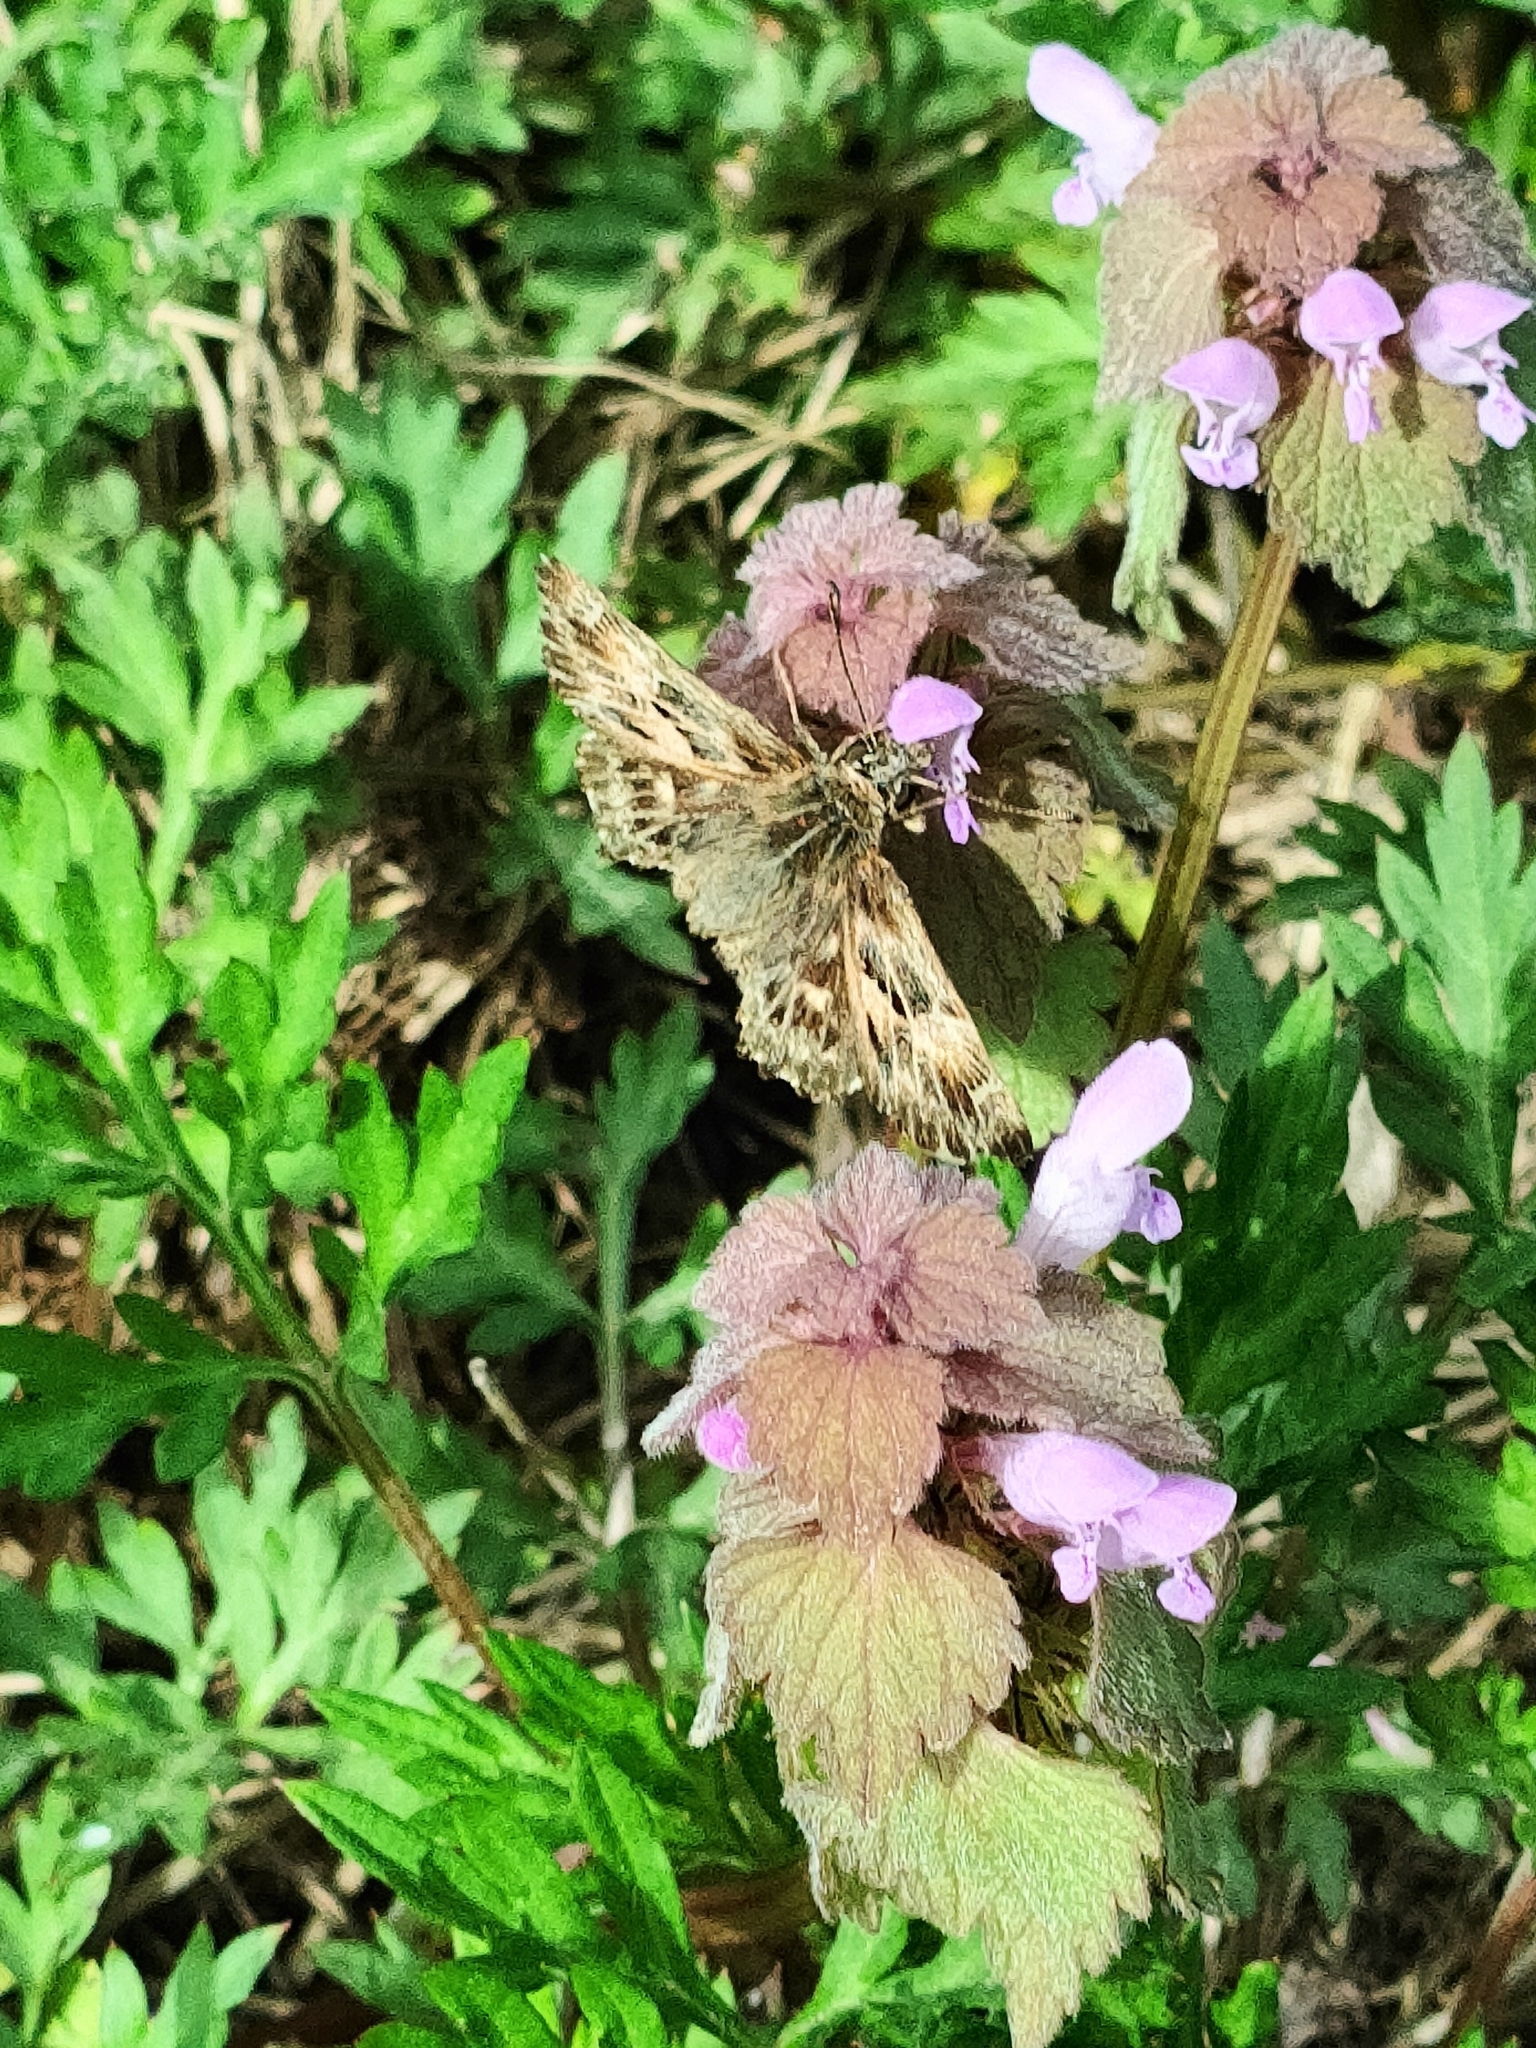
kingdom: Animalia
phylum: Arthropoda
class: Insecta
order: Lepidoptera
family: Hesperiidae
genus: Carcharodus
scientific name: Carcharodus alceae
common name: Mallow skipper
